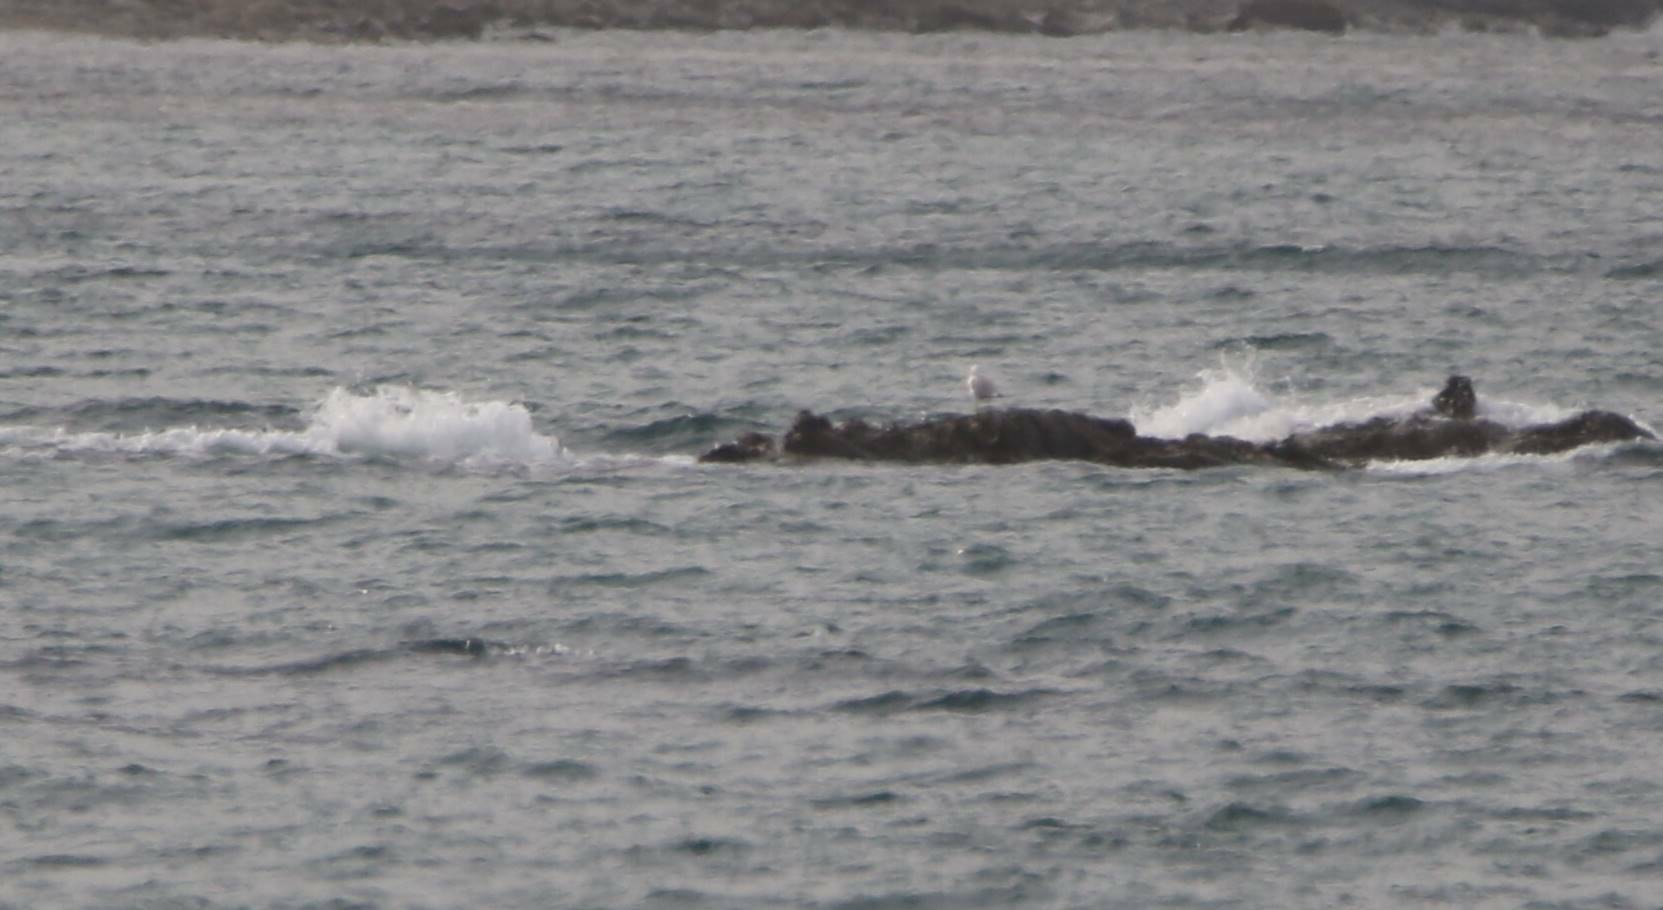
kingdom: Animalia
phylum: Chordata
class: Aves
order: Charadriiformes
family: Laridae
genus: Larus
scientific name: Larus michahellis
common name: Yellow-legged gull
